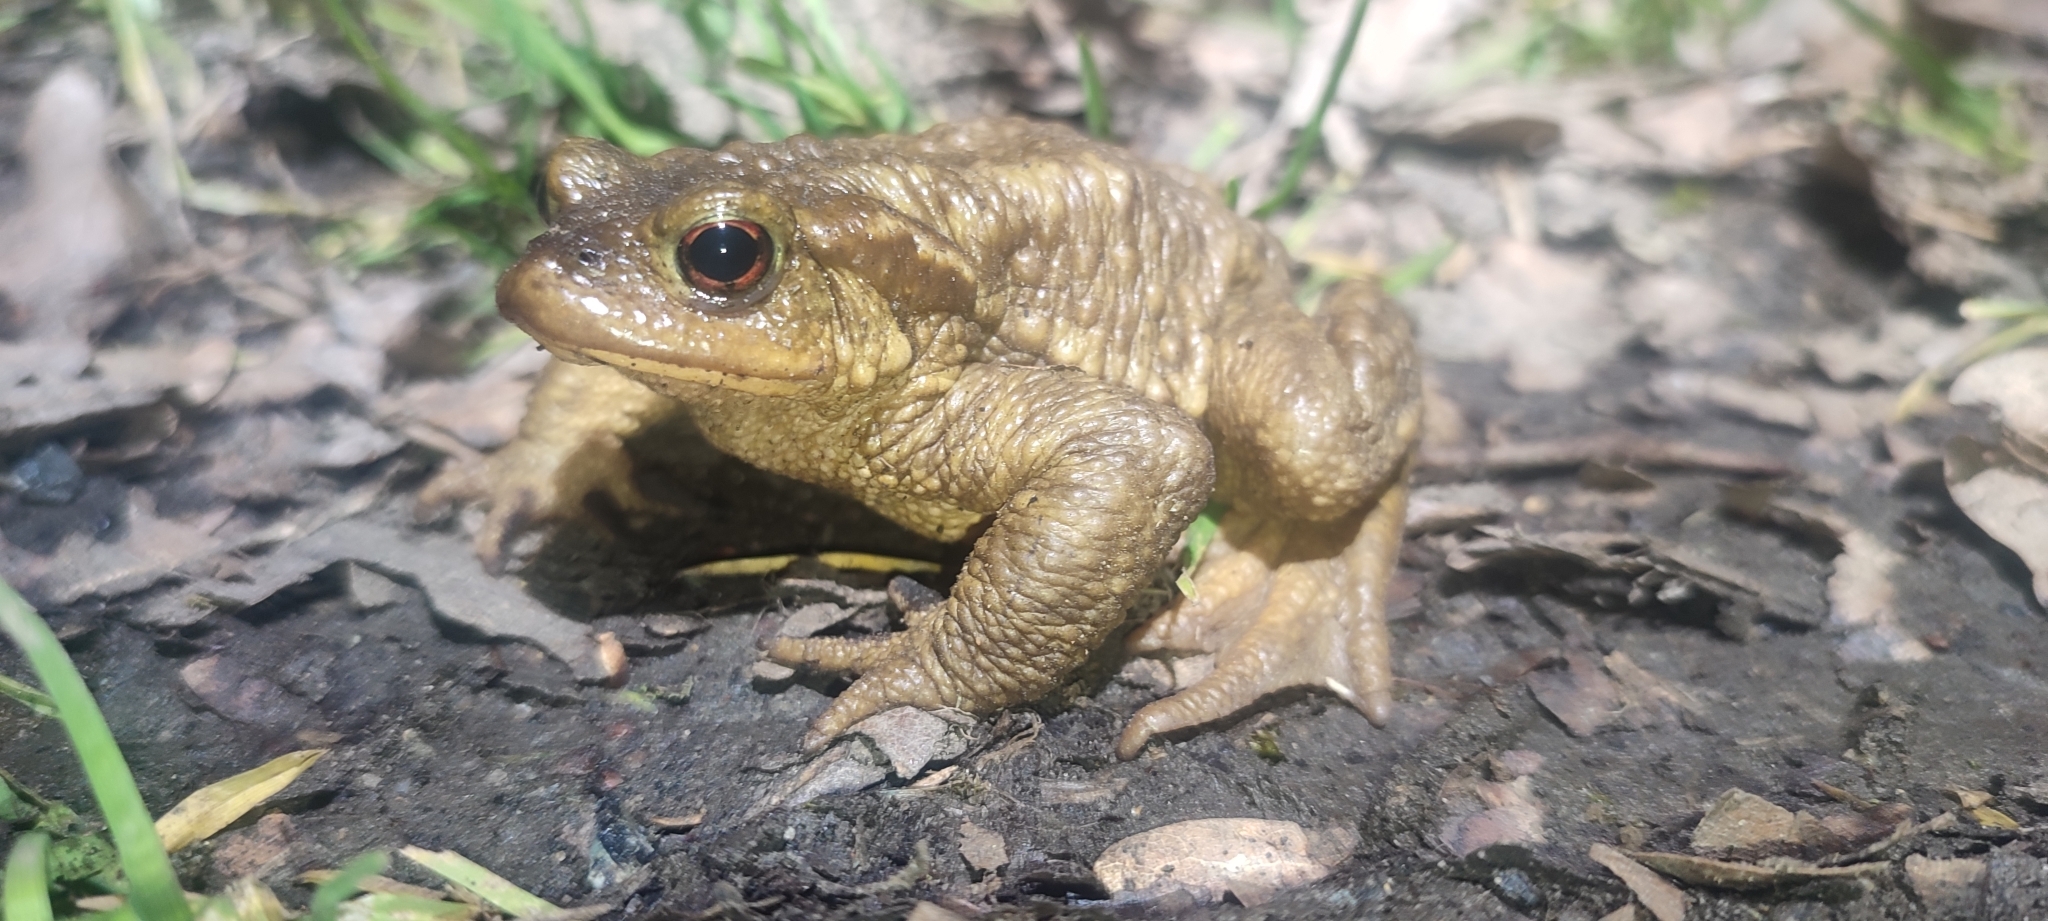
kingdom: Animalia
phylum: Chordata
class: Amphibia
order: Anura
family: Bufonidae
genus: Bufo
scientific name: Bufo spinosus
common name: Western common toad
